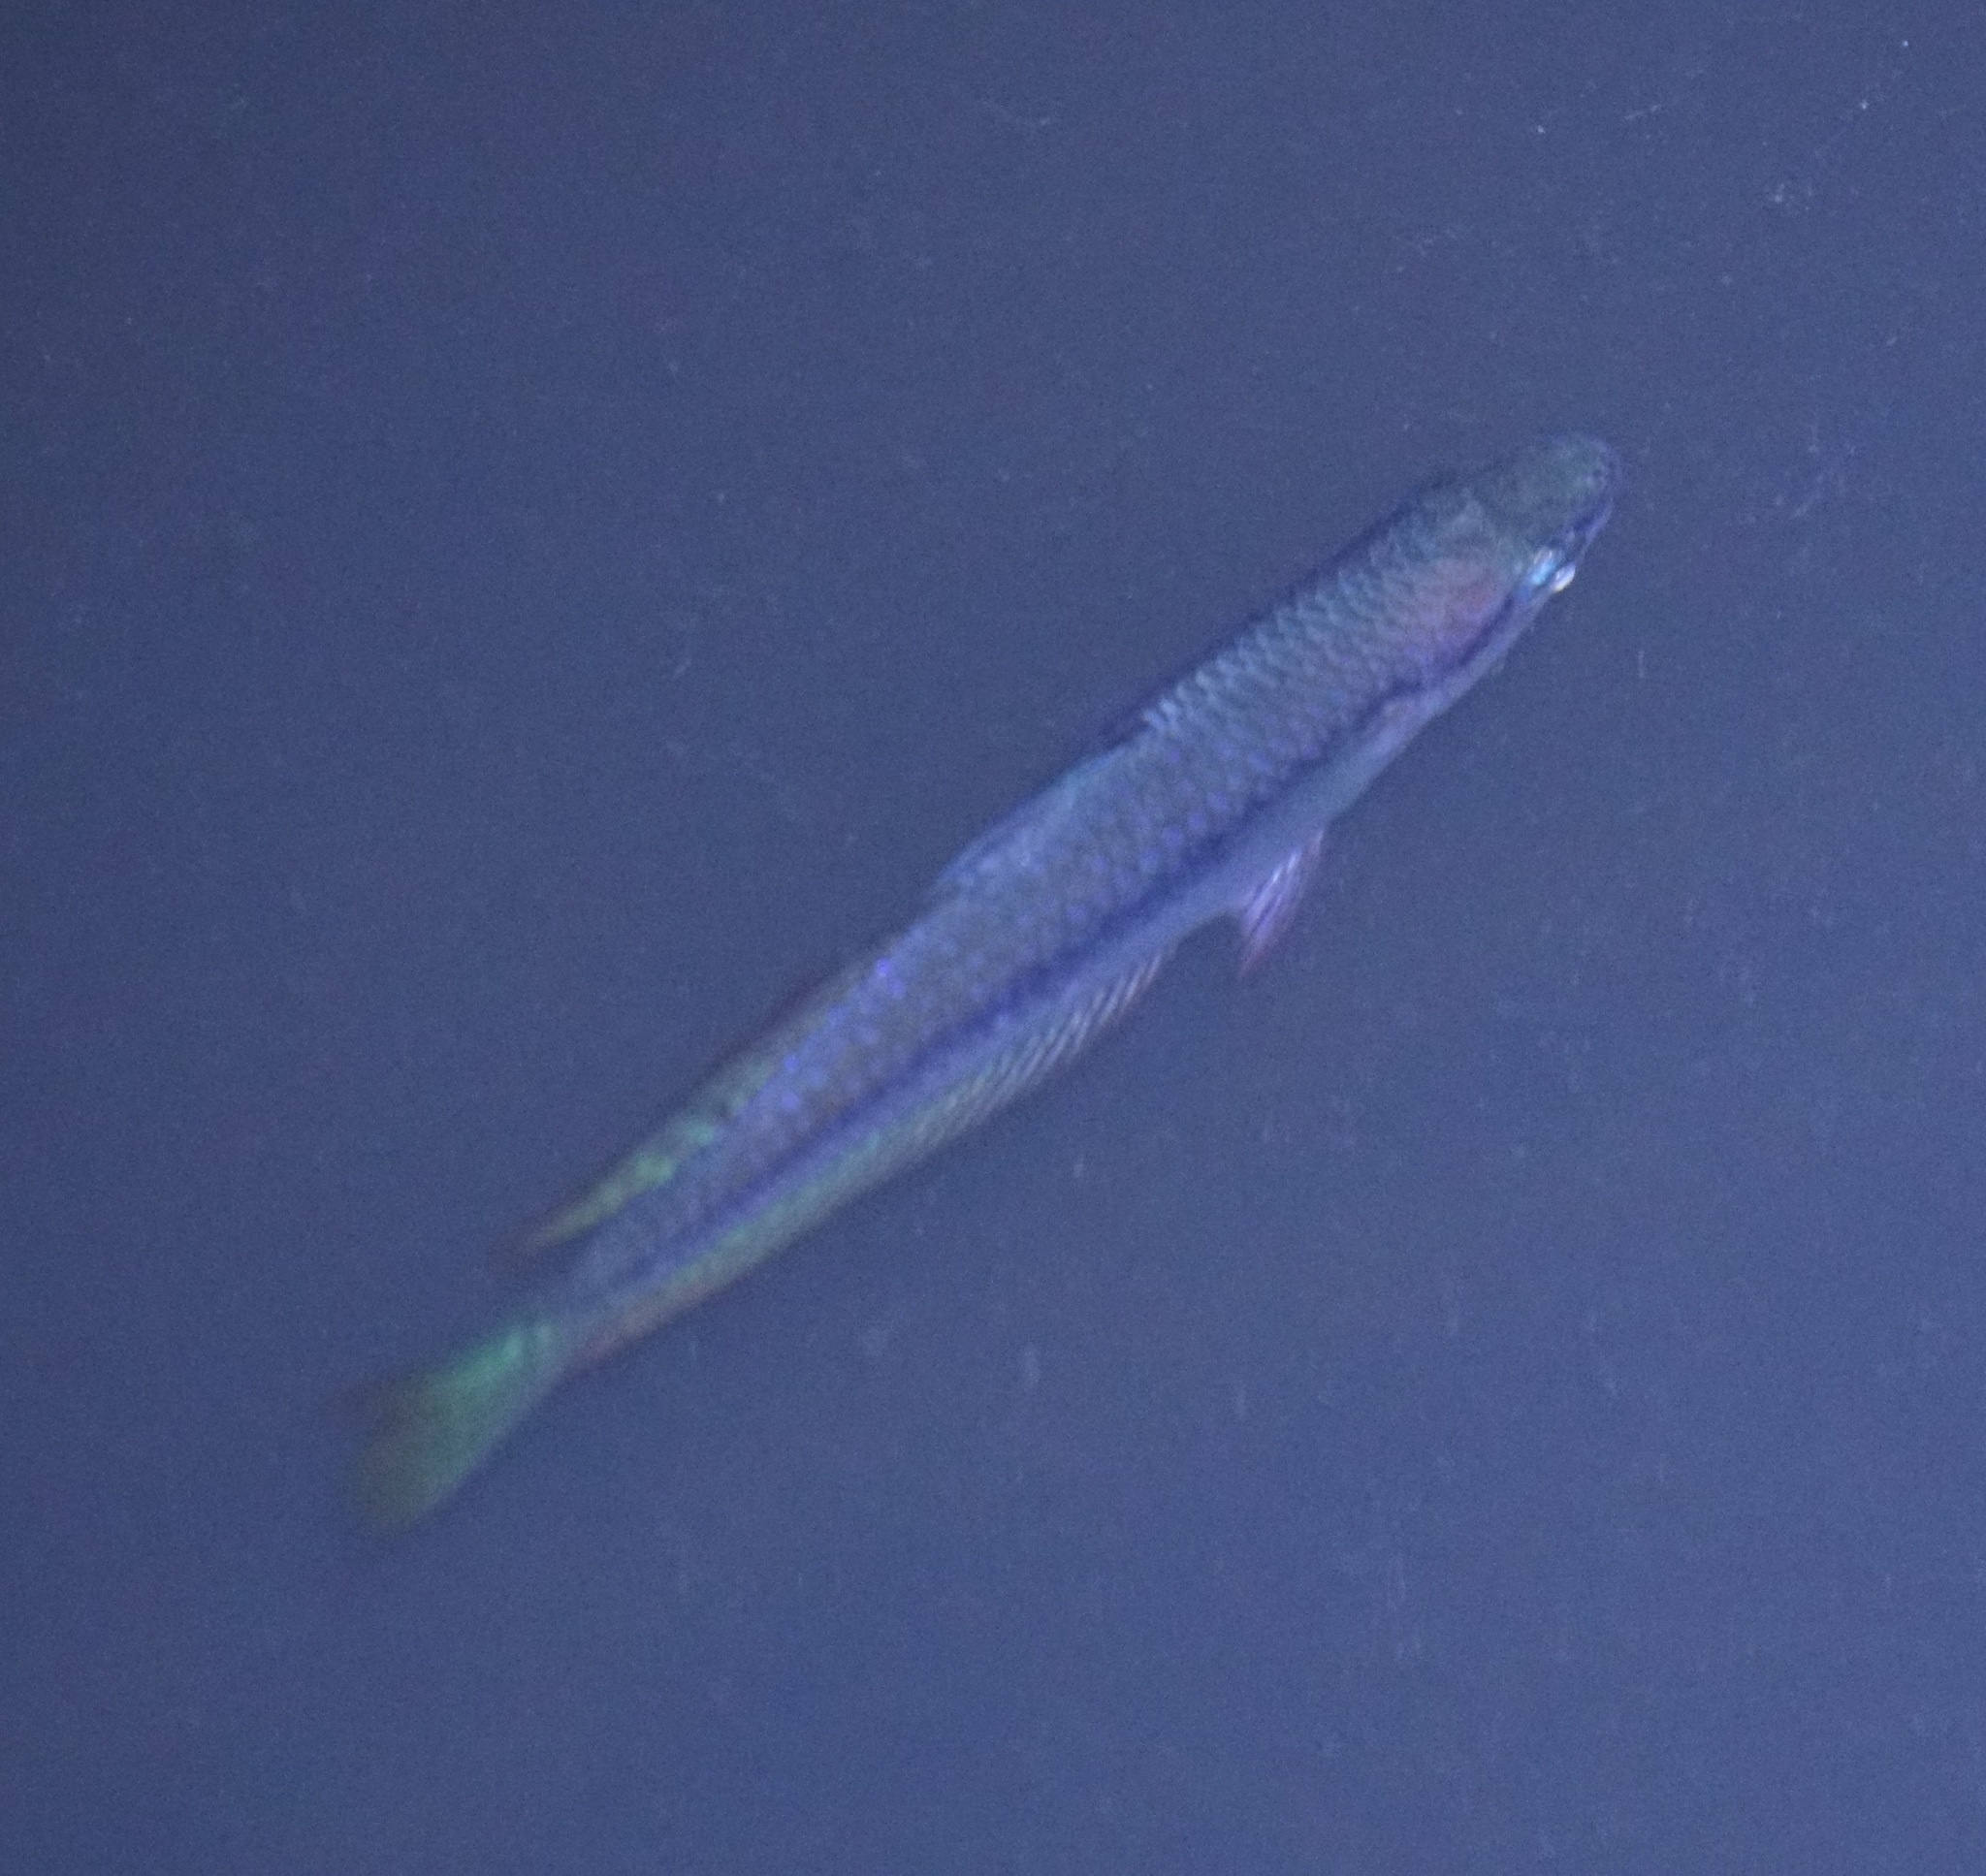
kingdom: Animalia
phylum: Chordata
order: Atheriniformes
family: Melanotaeniidae
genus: Melanotaenia
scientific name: Melanotaenia splendida
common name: Checkered rainbowfish
